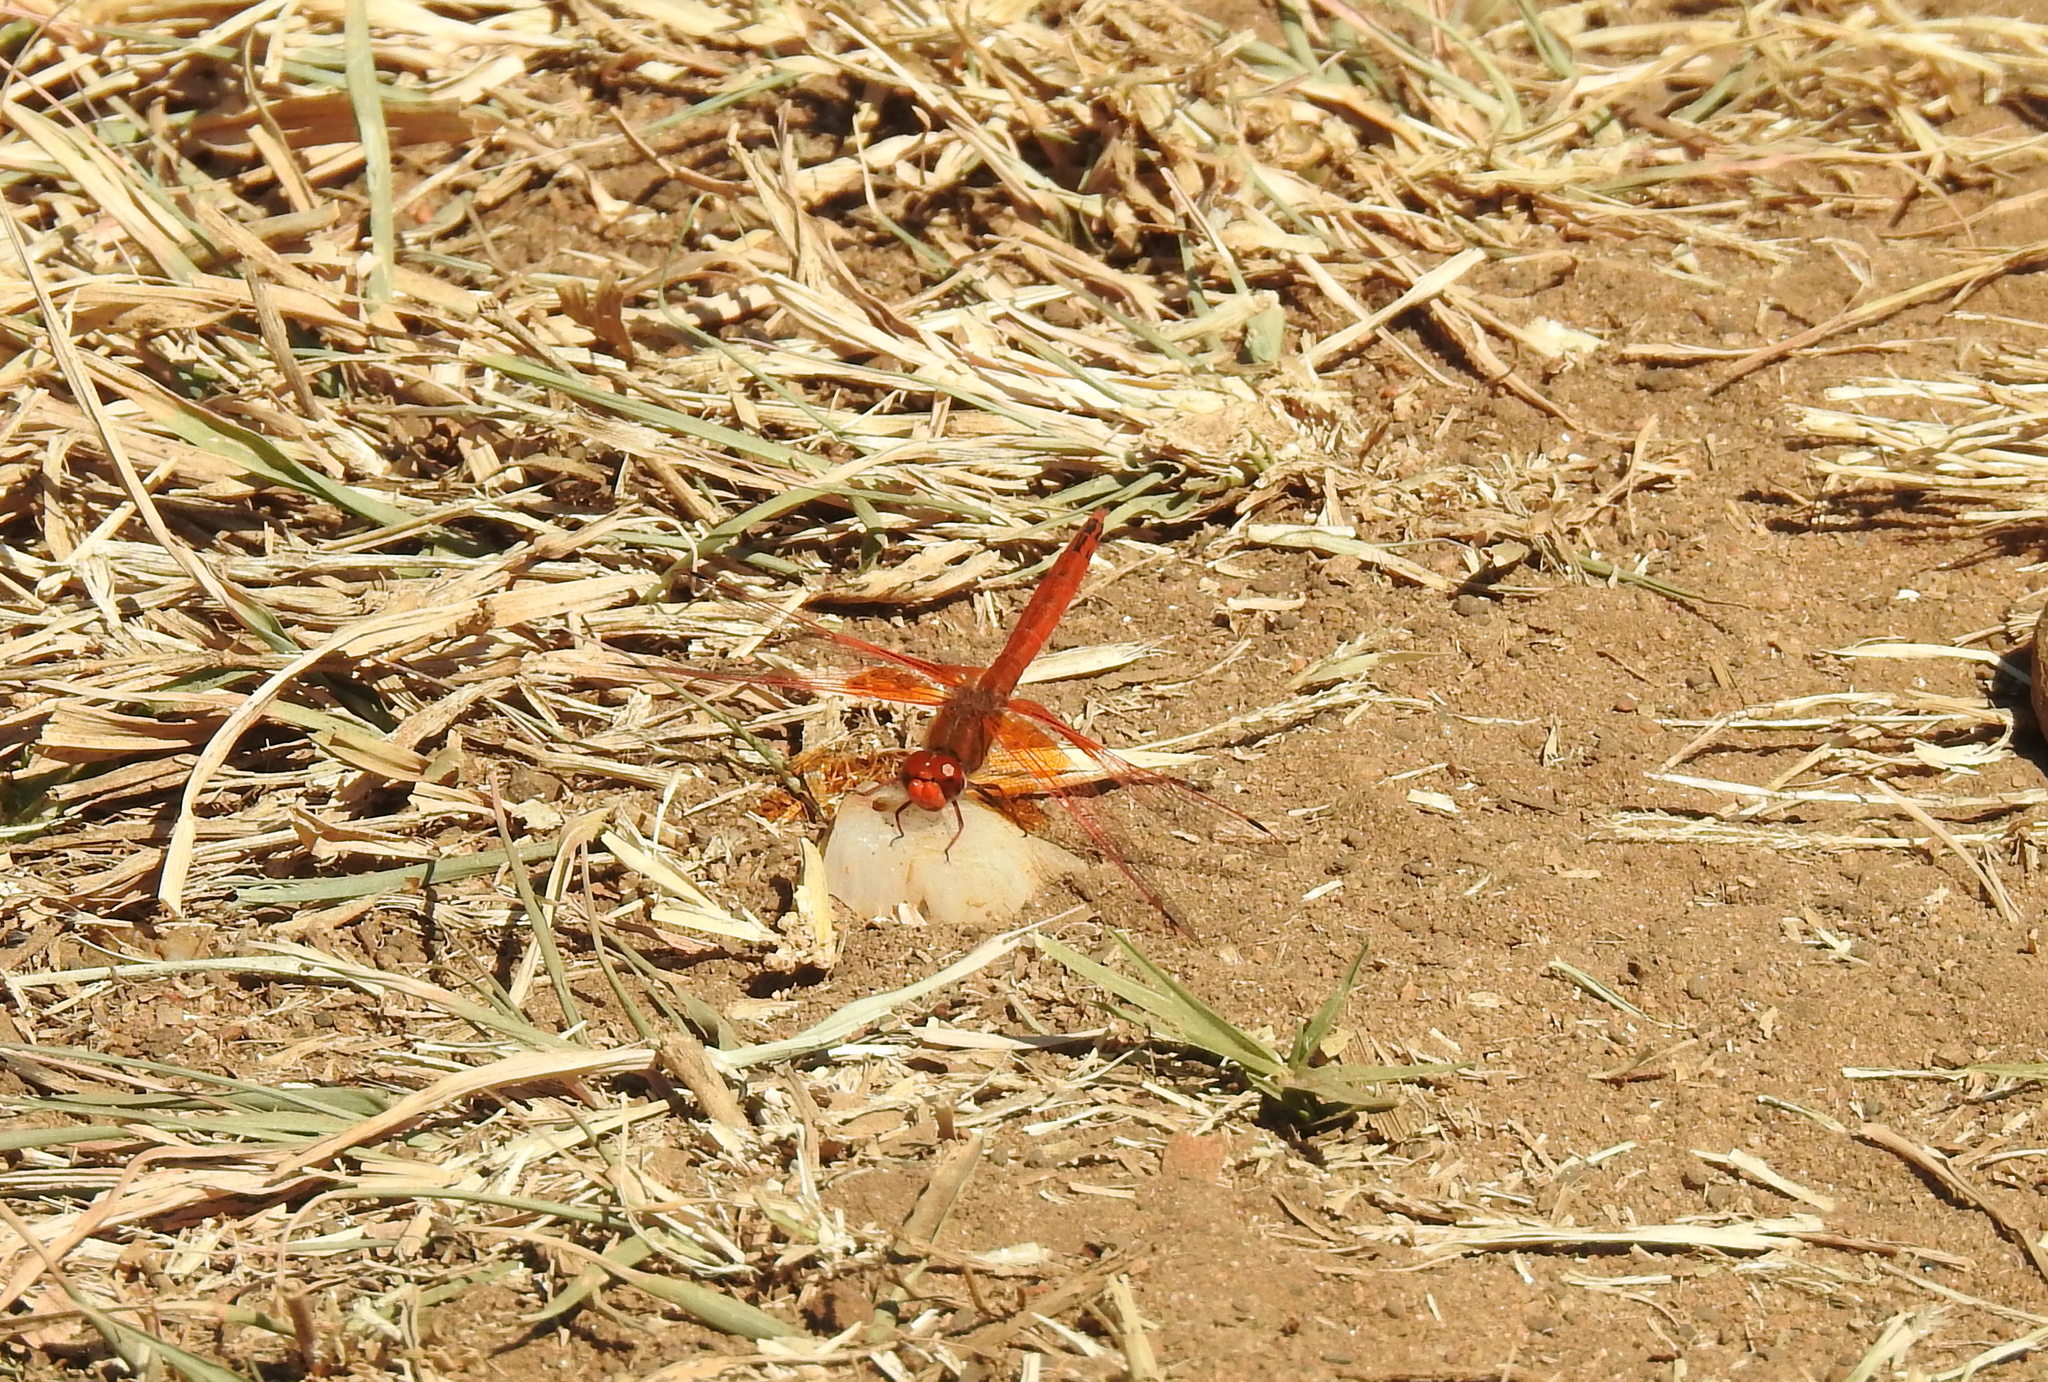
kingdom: Animalia
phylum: Arthropoda
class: Insecta
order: Odonata
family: Libellulidae
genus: Trithemis
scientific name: Trithemis kirbyi
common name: Kirby's dropwing
